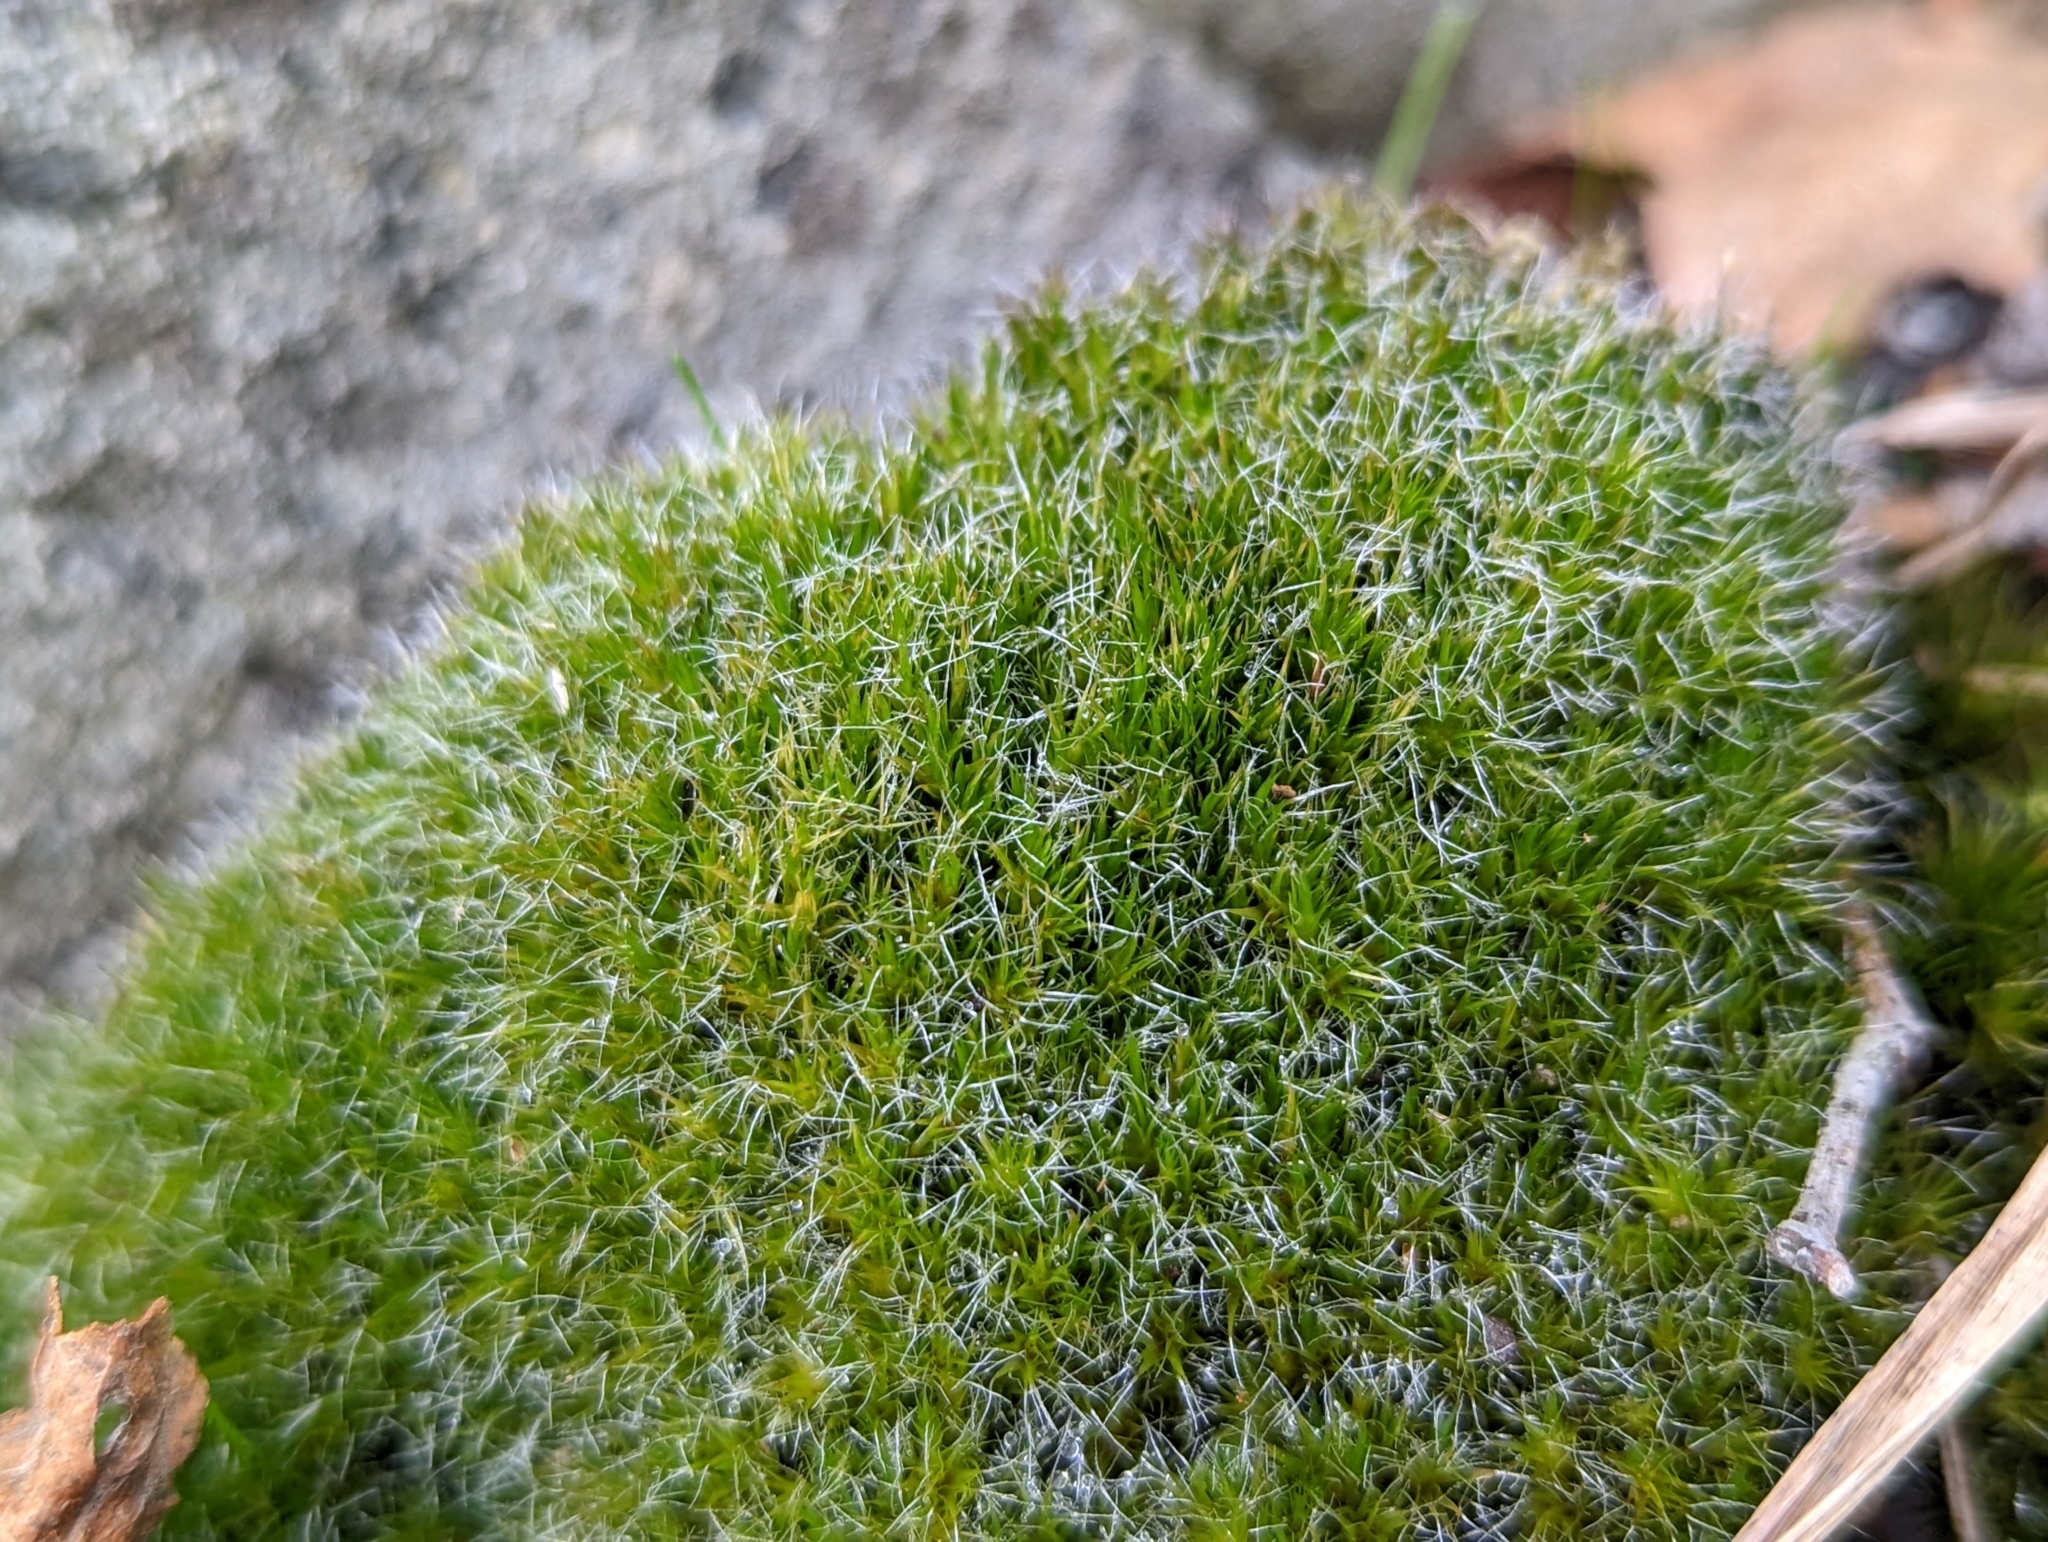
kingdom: Plantae
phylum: Bryophyta
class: Bryopsida
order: Grimmiales
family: Grimmiaceae
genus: Grimmia
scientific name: Grimmia pulvinata
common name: Grey-cushioned grimmia
